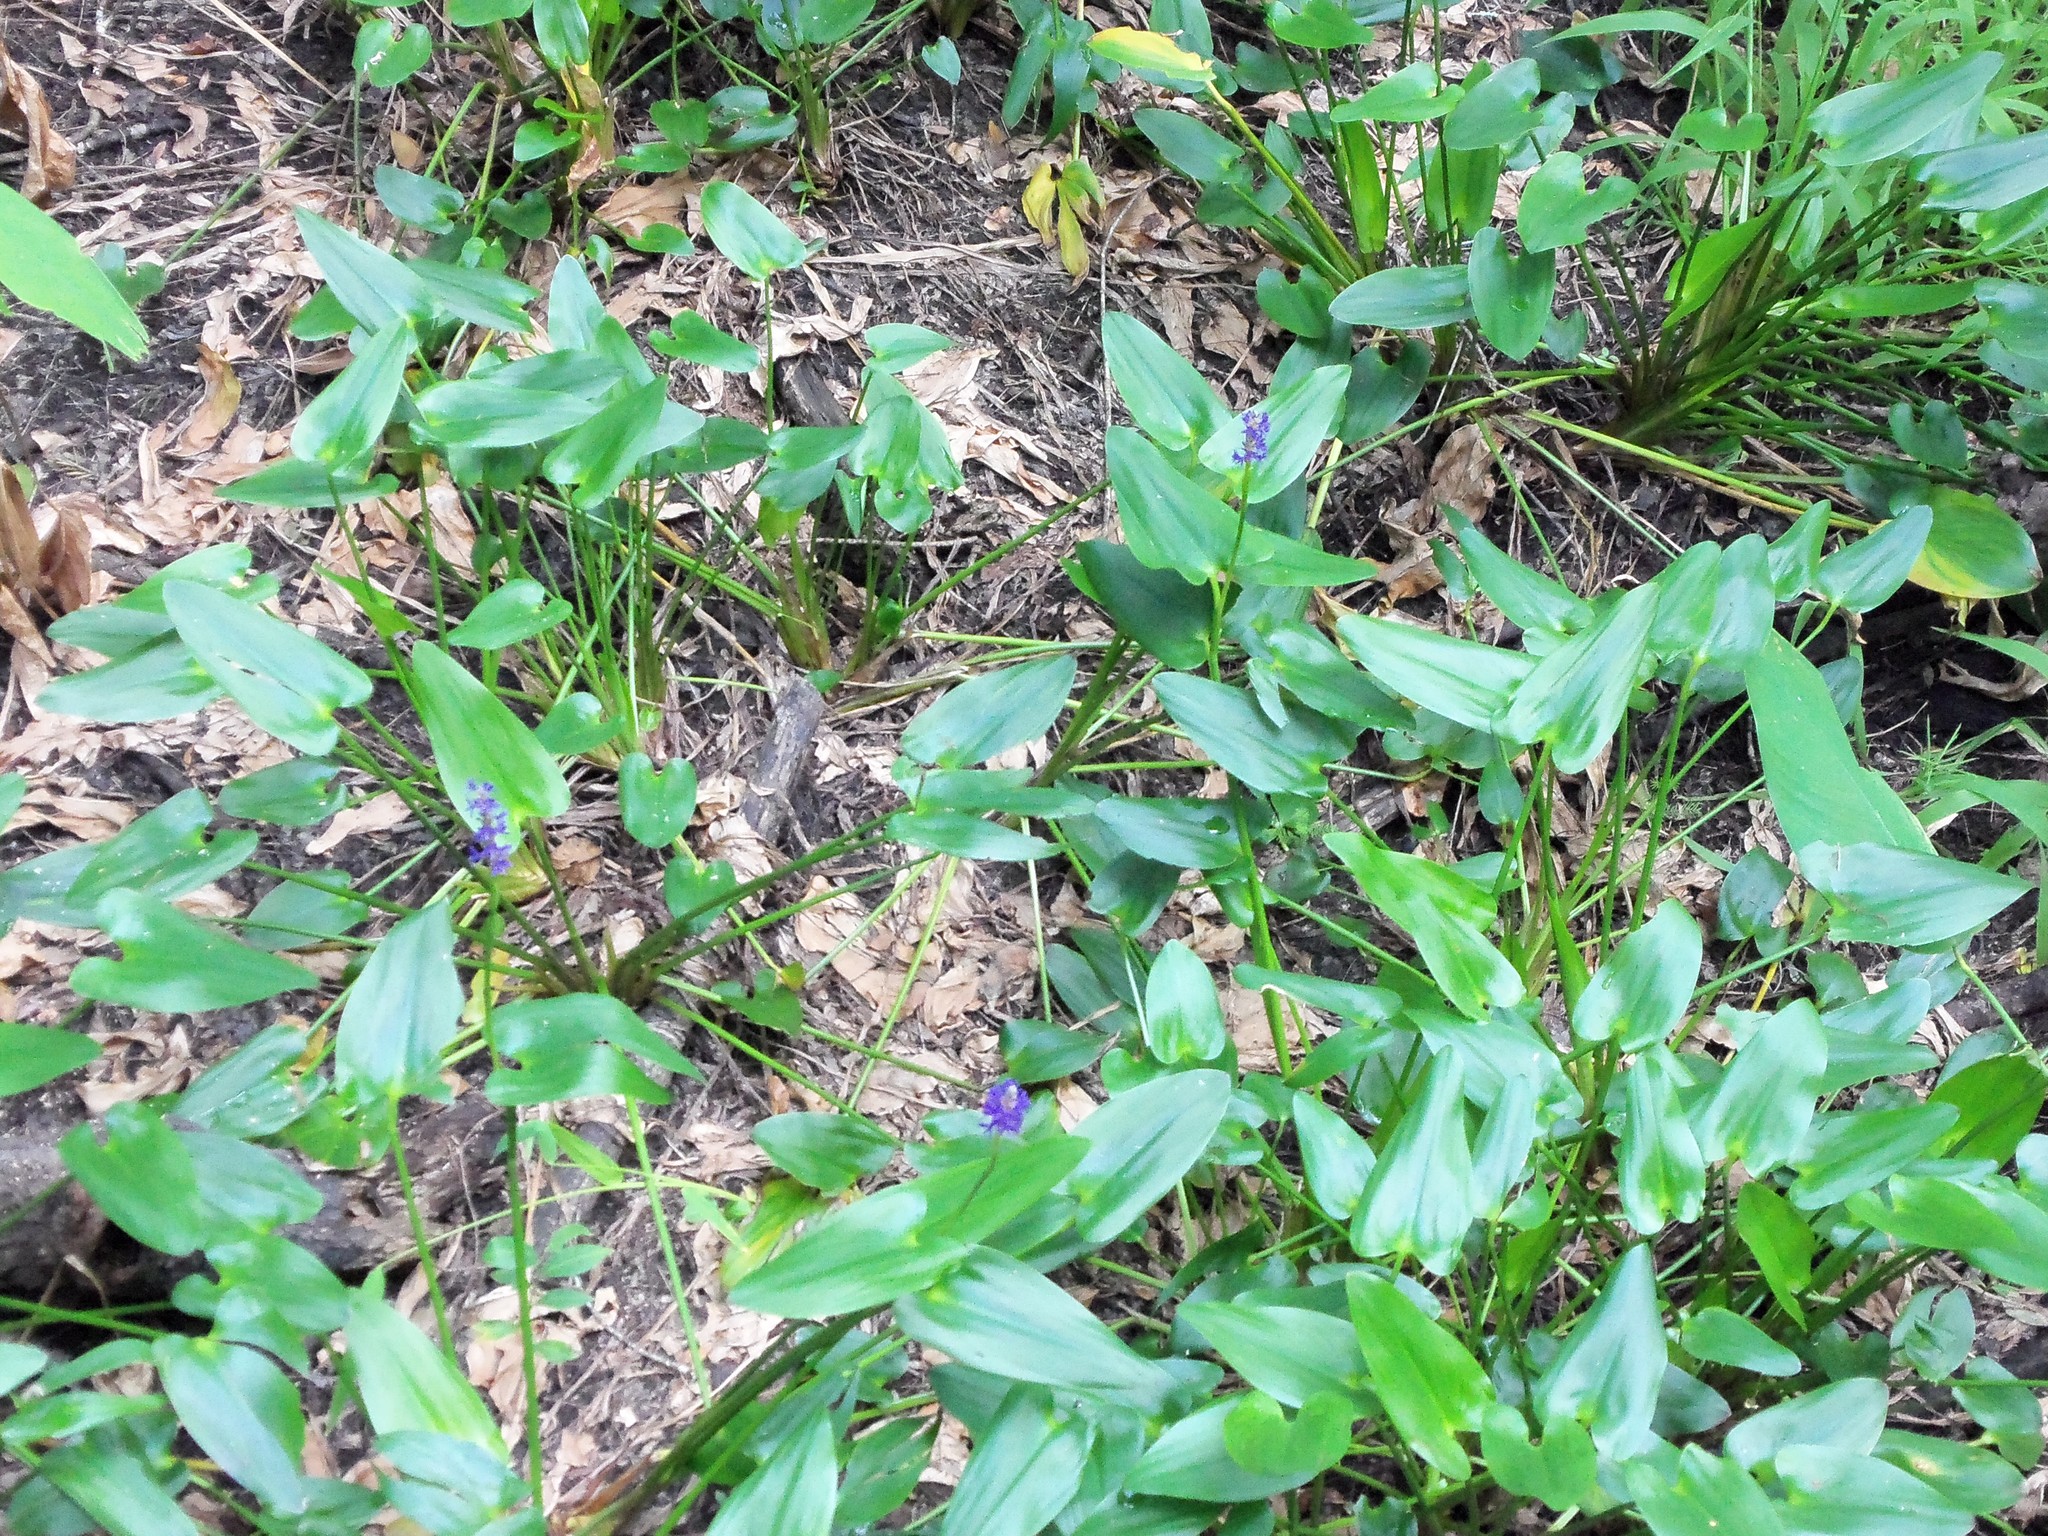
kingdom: Plantae
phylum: Tracheophyta
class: Liliopsida
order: Commelinales
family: Pontederiaceae
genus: Pontederia
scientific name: Pontederia cordata
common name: Pickerelweed
